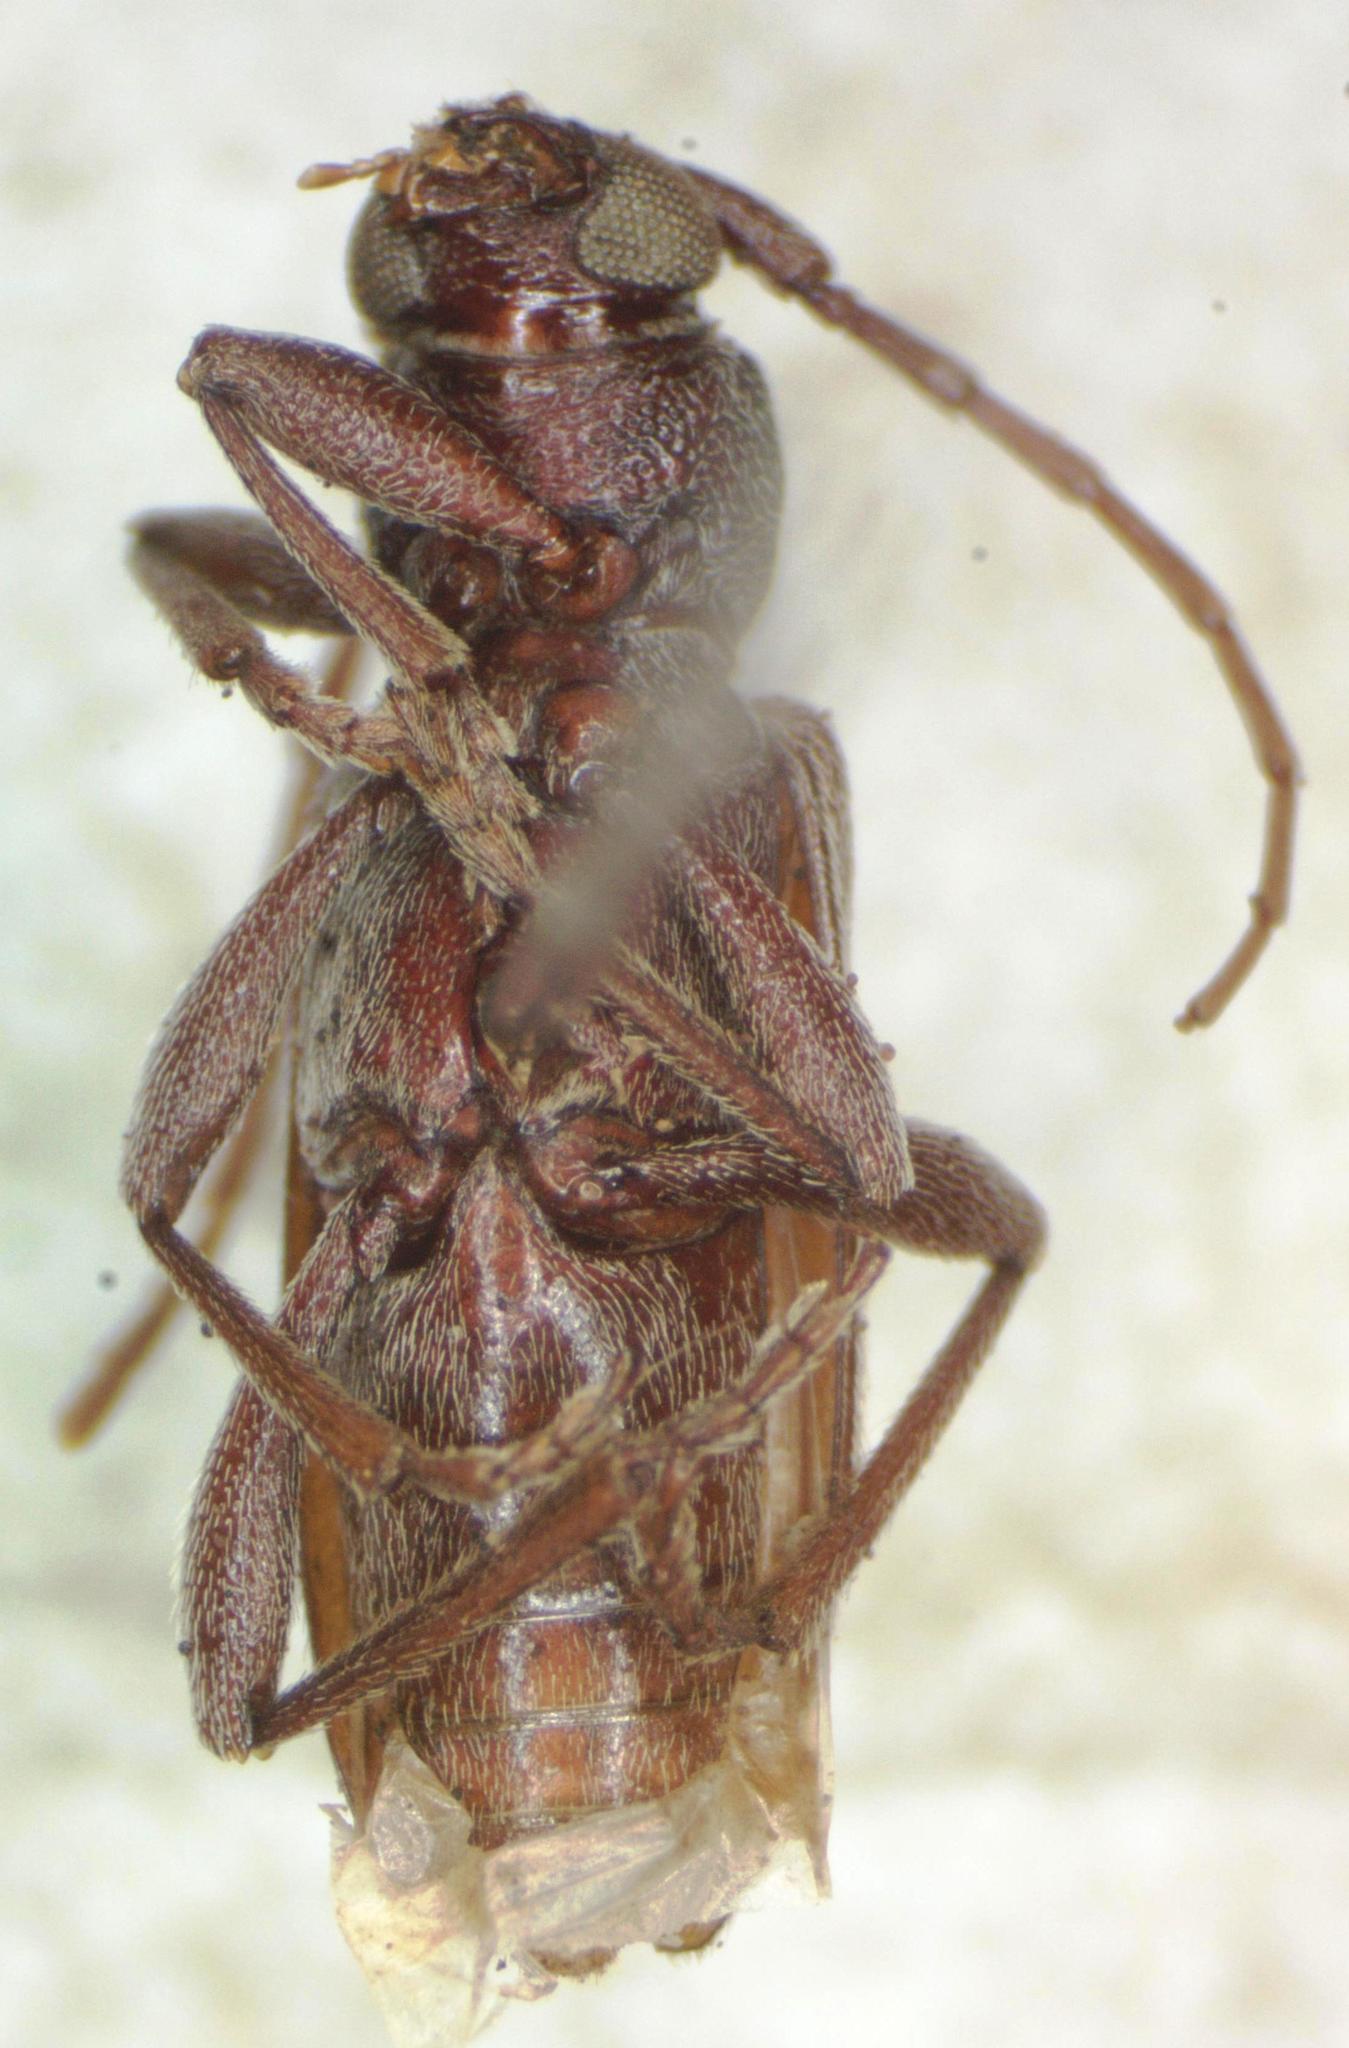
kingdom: Animalia
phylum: Arthropoda
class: Insecta
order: Coleoptera
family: Cerambycidae
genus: Anelaphus
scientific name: Anelaphus savinai
